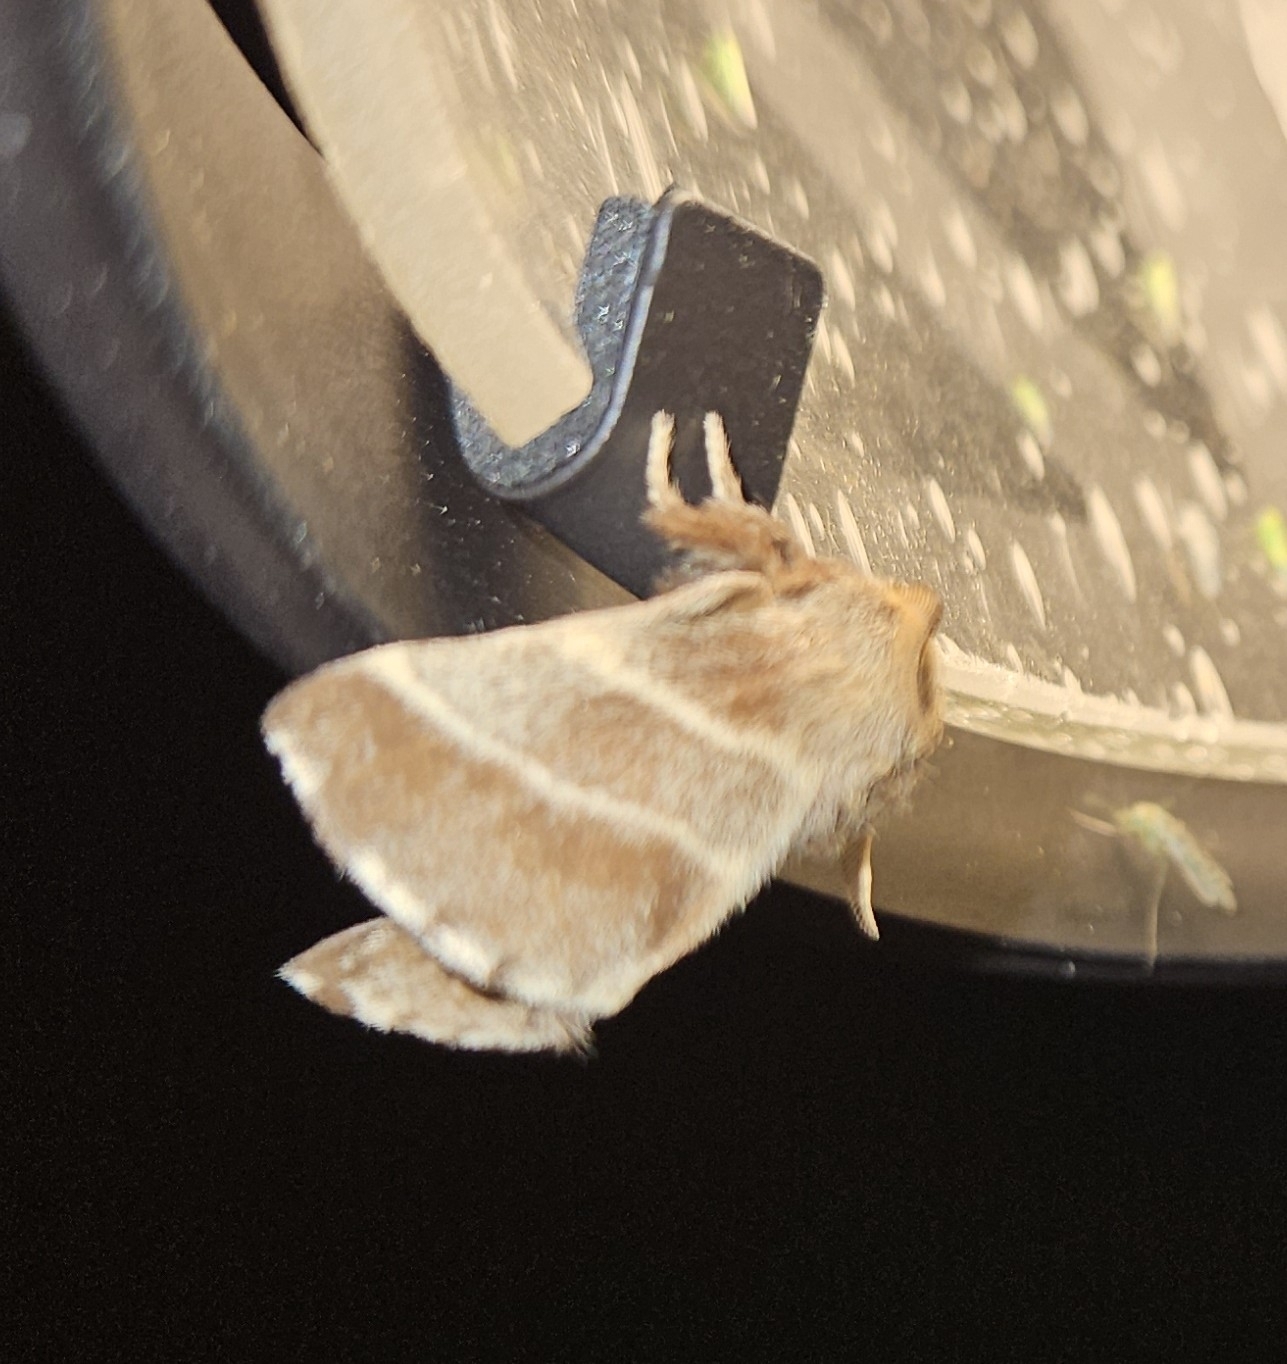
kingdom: Animalia
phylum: Arthropoda
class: Insecta
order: Lepidoptera
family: Lasiocampidae
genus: Malacosoma
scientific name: Malacosoma americana
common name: Eastern tent caterpillar moth
